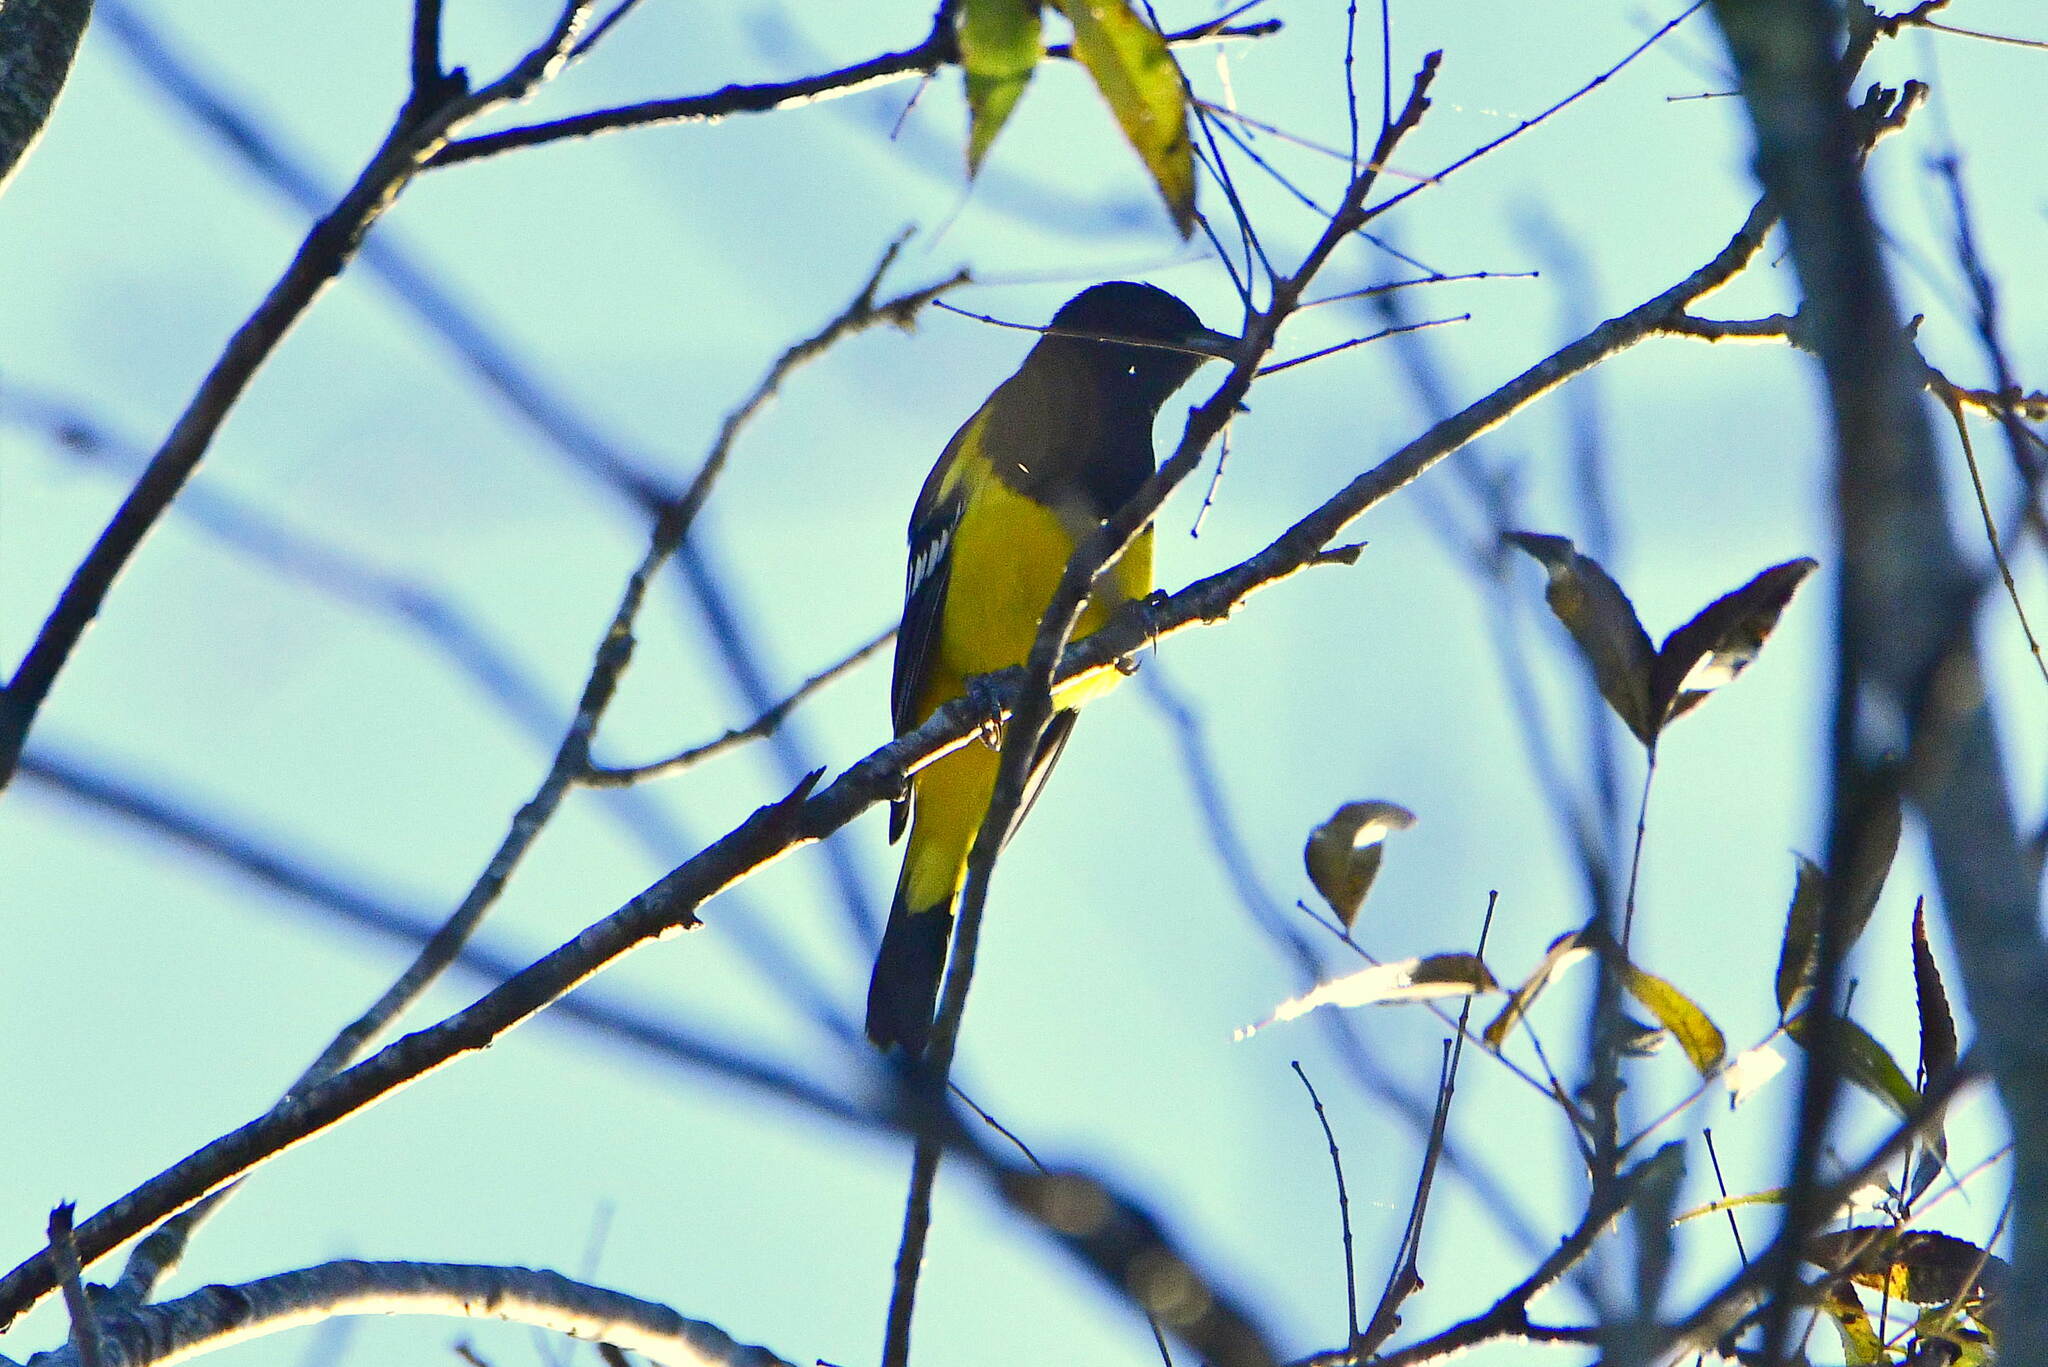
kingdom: Animalia
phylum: Chordata
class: Aves
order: Passeriformes
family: Icteridae
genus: Icterus
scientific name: Icterus parisorum
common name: Scott's oriole
